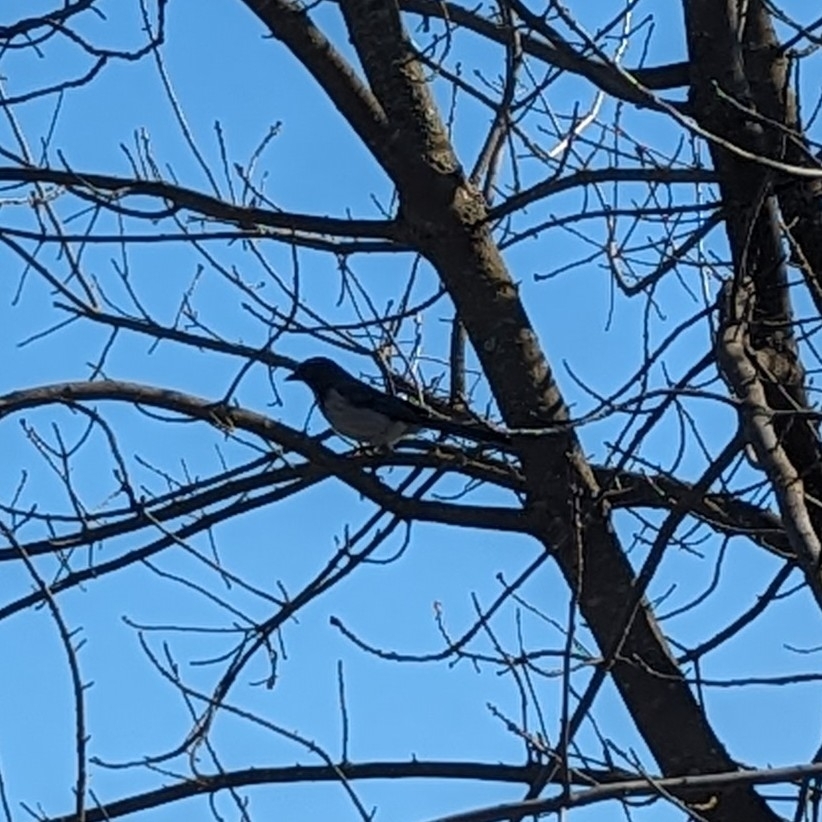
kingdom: Animalia
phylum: Chordata
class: Aves
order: Passeriformes
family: Corvidae
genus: Aphelocoma
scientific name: Aphelocoma californica
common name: California scrub-jay
